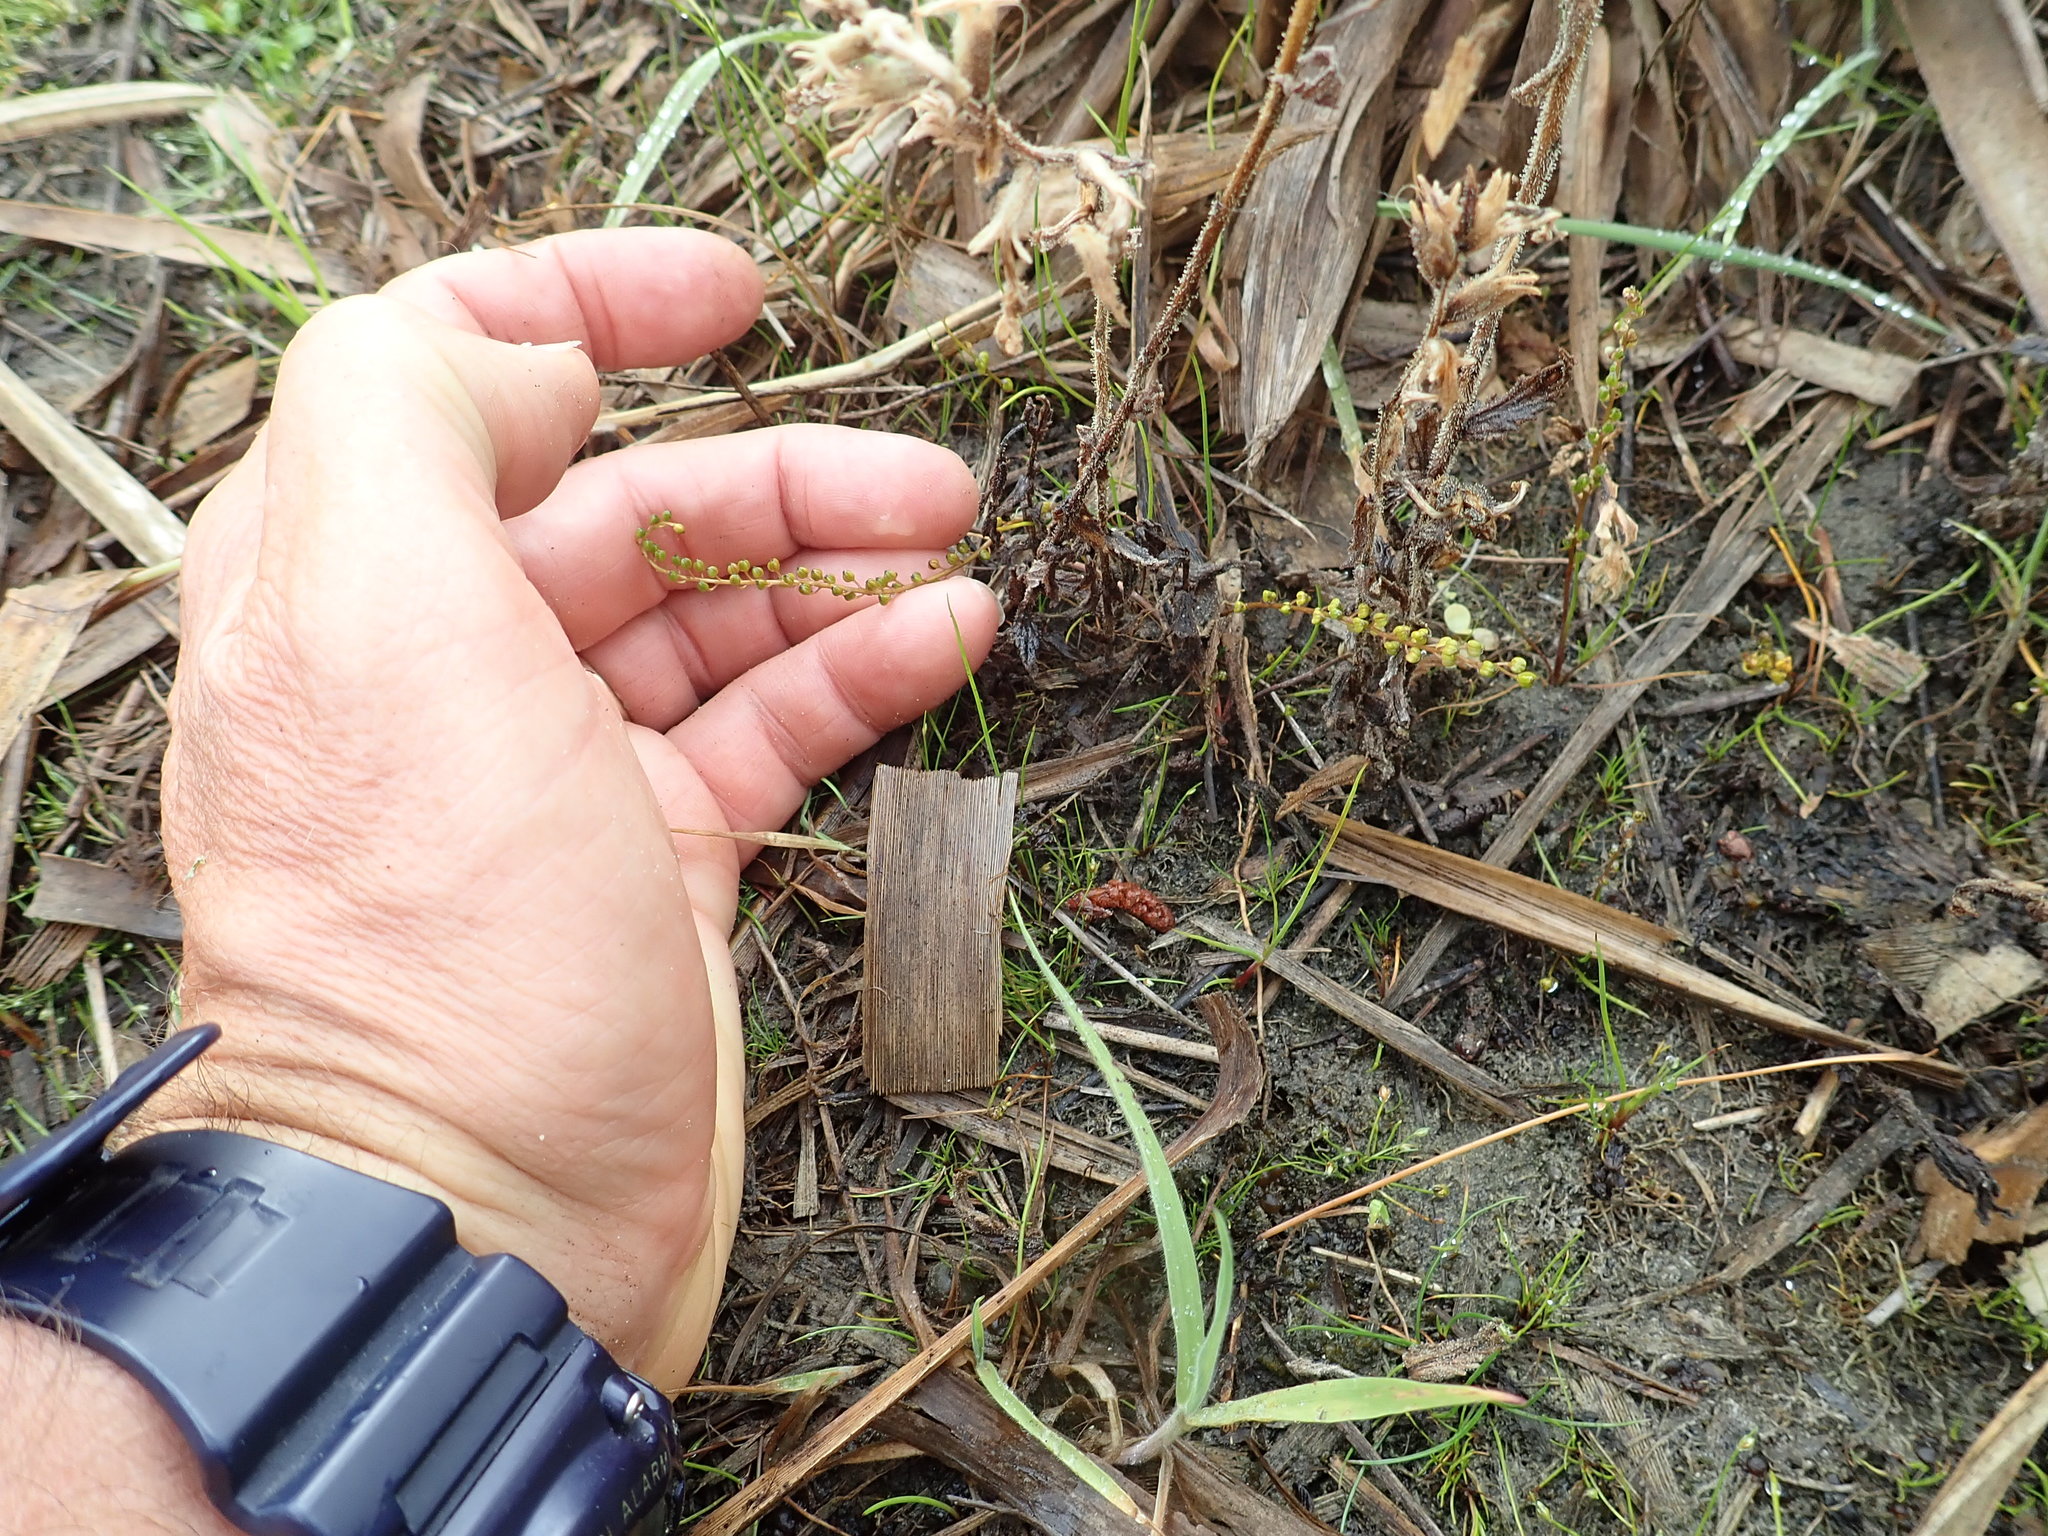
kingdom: Plantae
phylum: Tracheophyta
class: Liliopsida
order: Alismatales
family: Juncaginaceae
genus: Triglochin
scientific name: Triglochin striata
